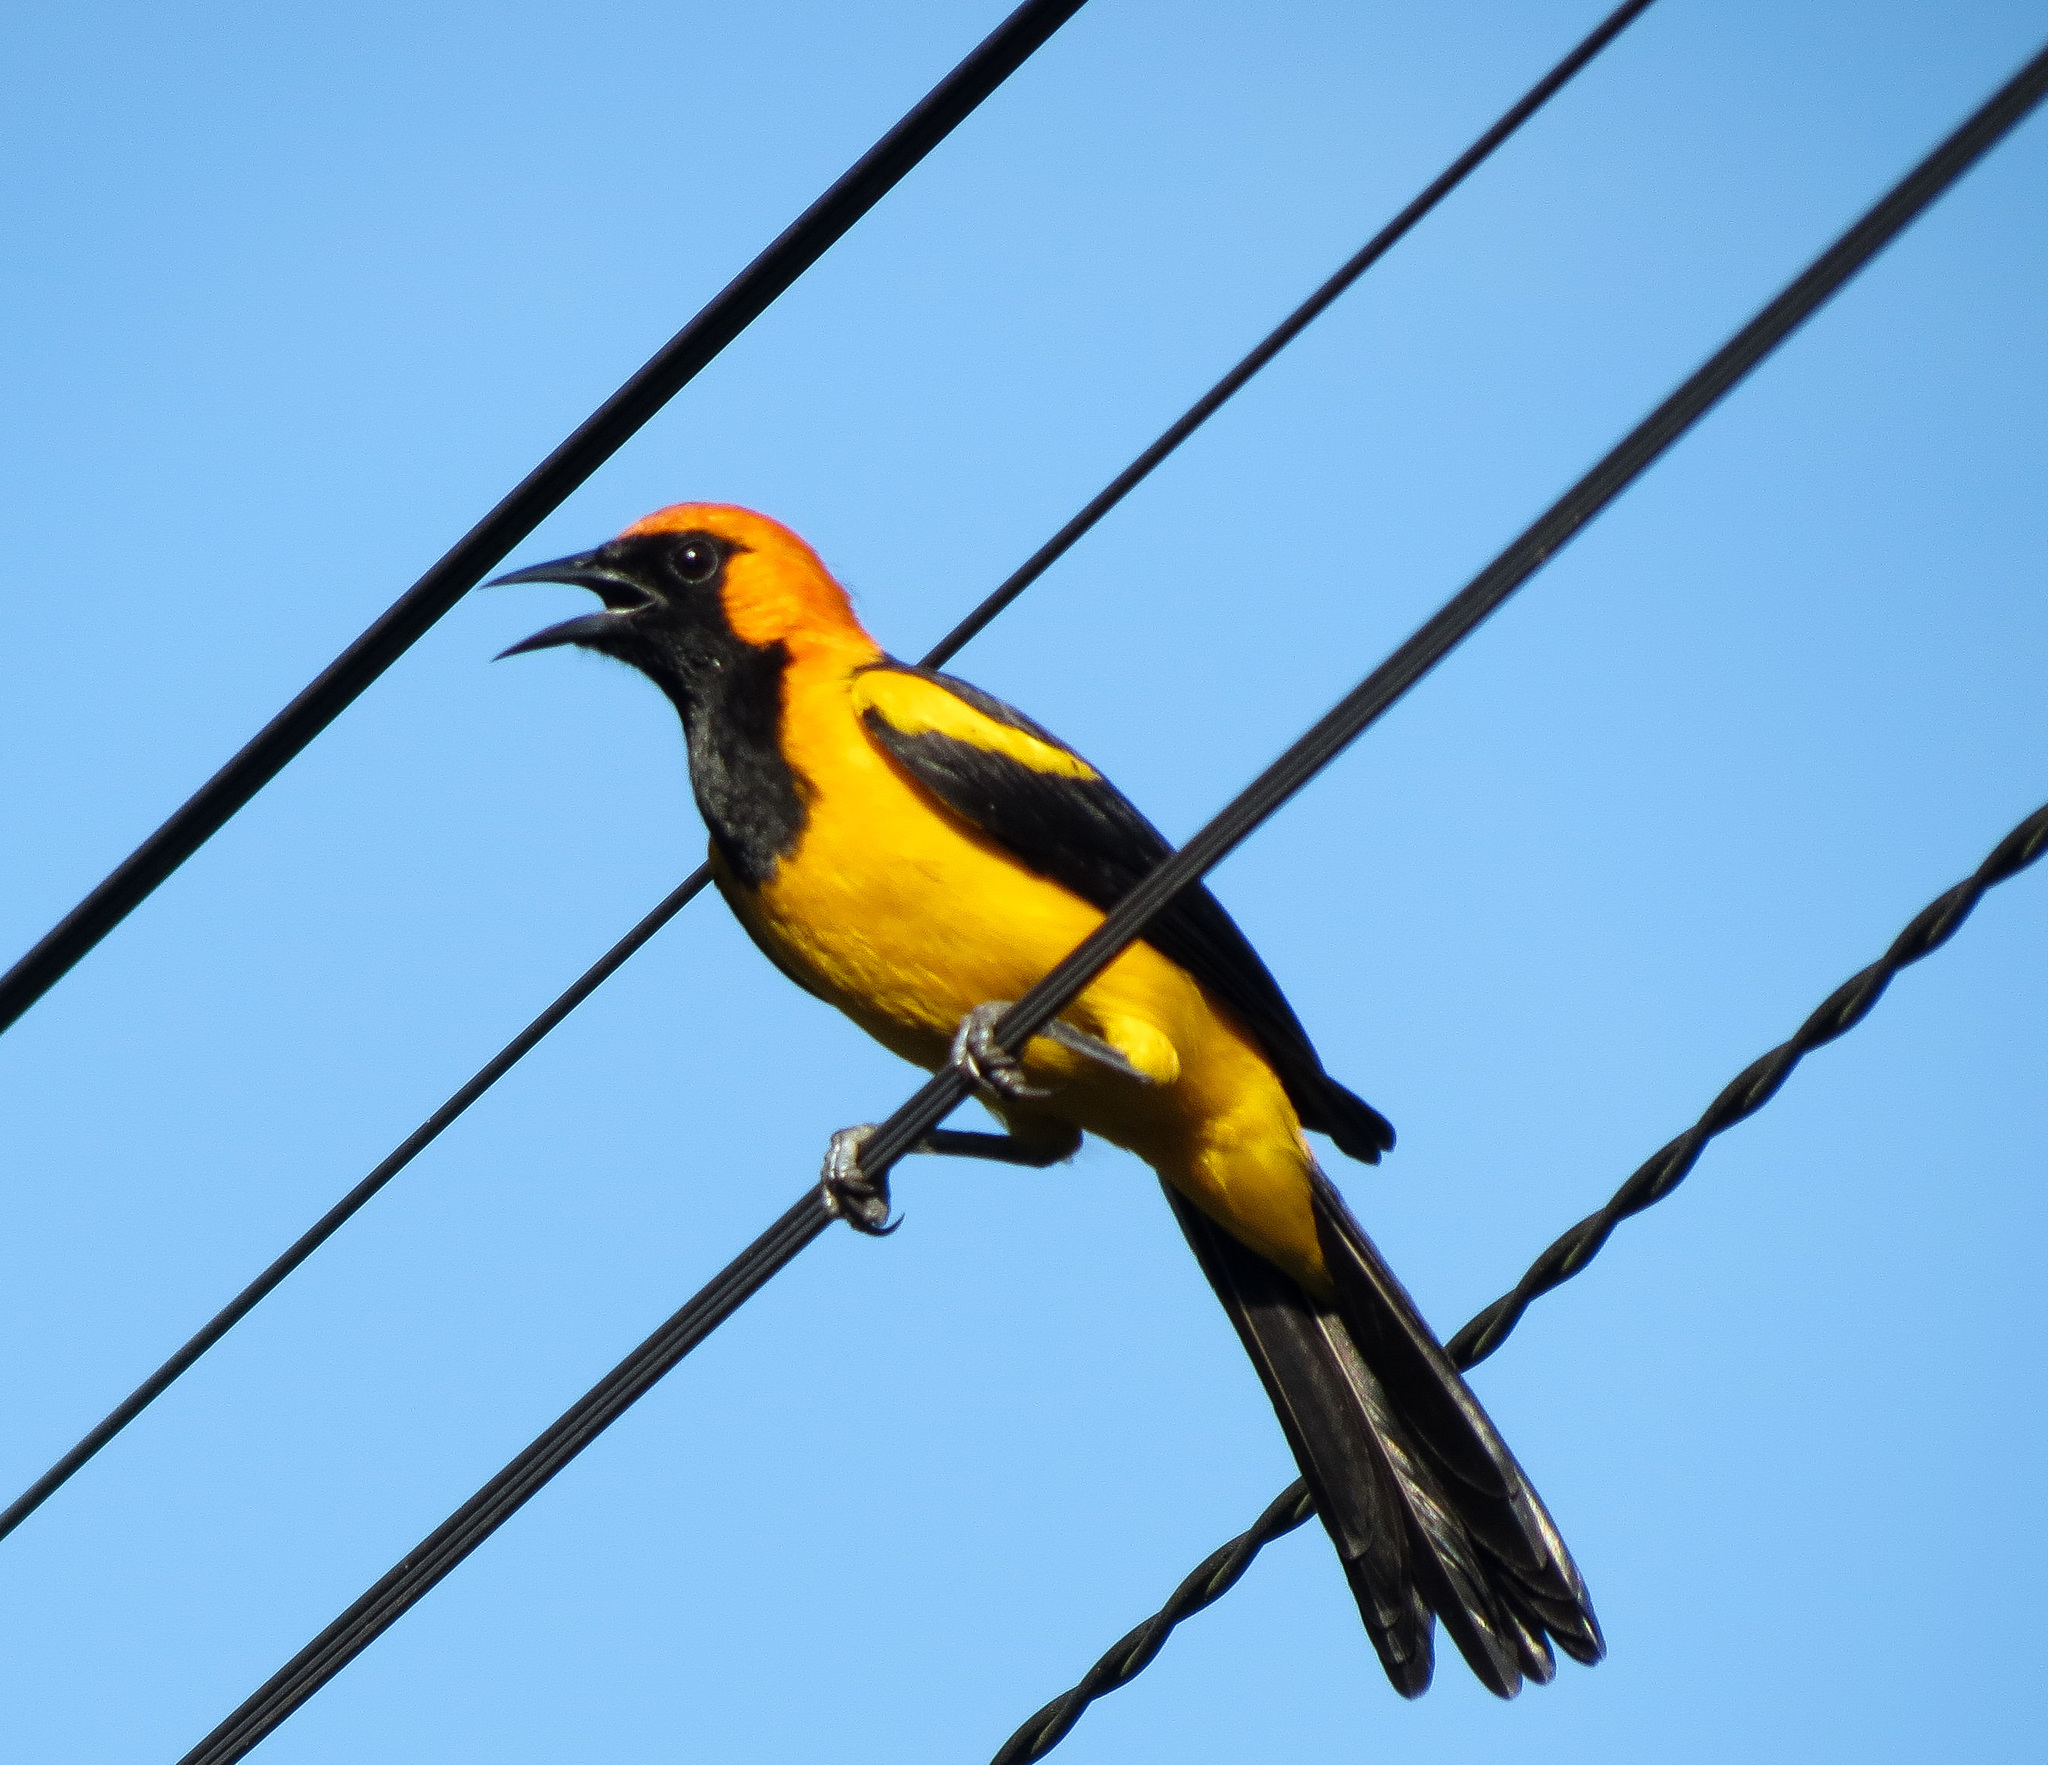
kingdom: Animalia
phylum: Chordata
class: Aves
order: Passeriformes
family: Icteridae
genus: Icterus
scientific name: Icterus auricapillus
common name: Orange-crowned oriole
